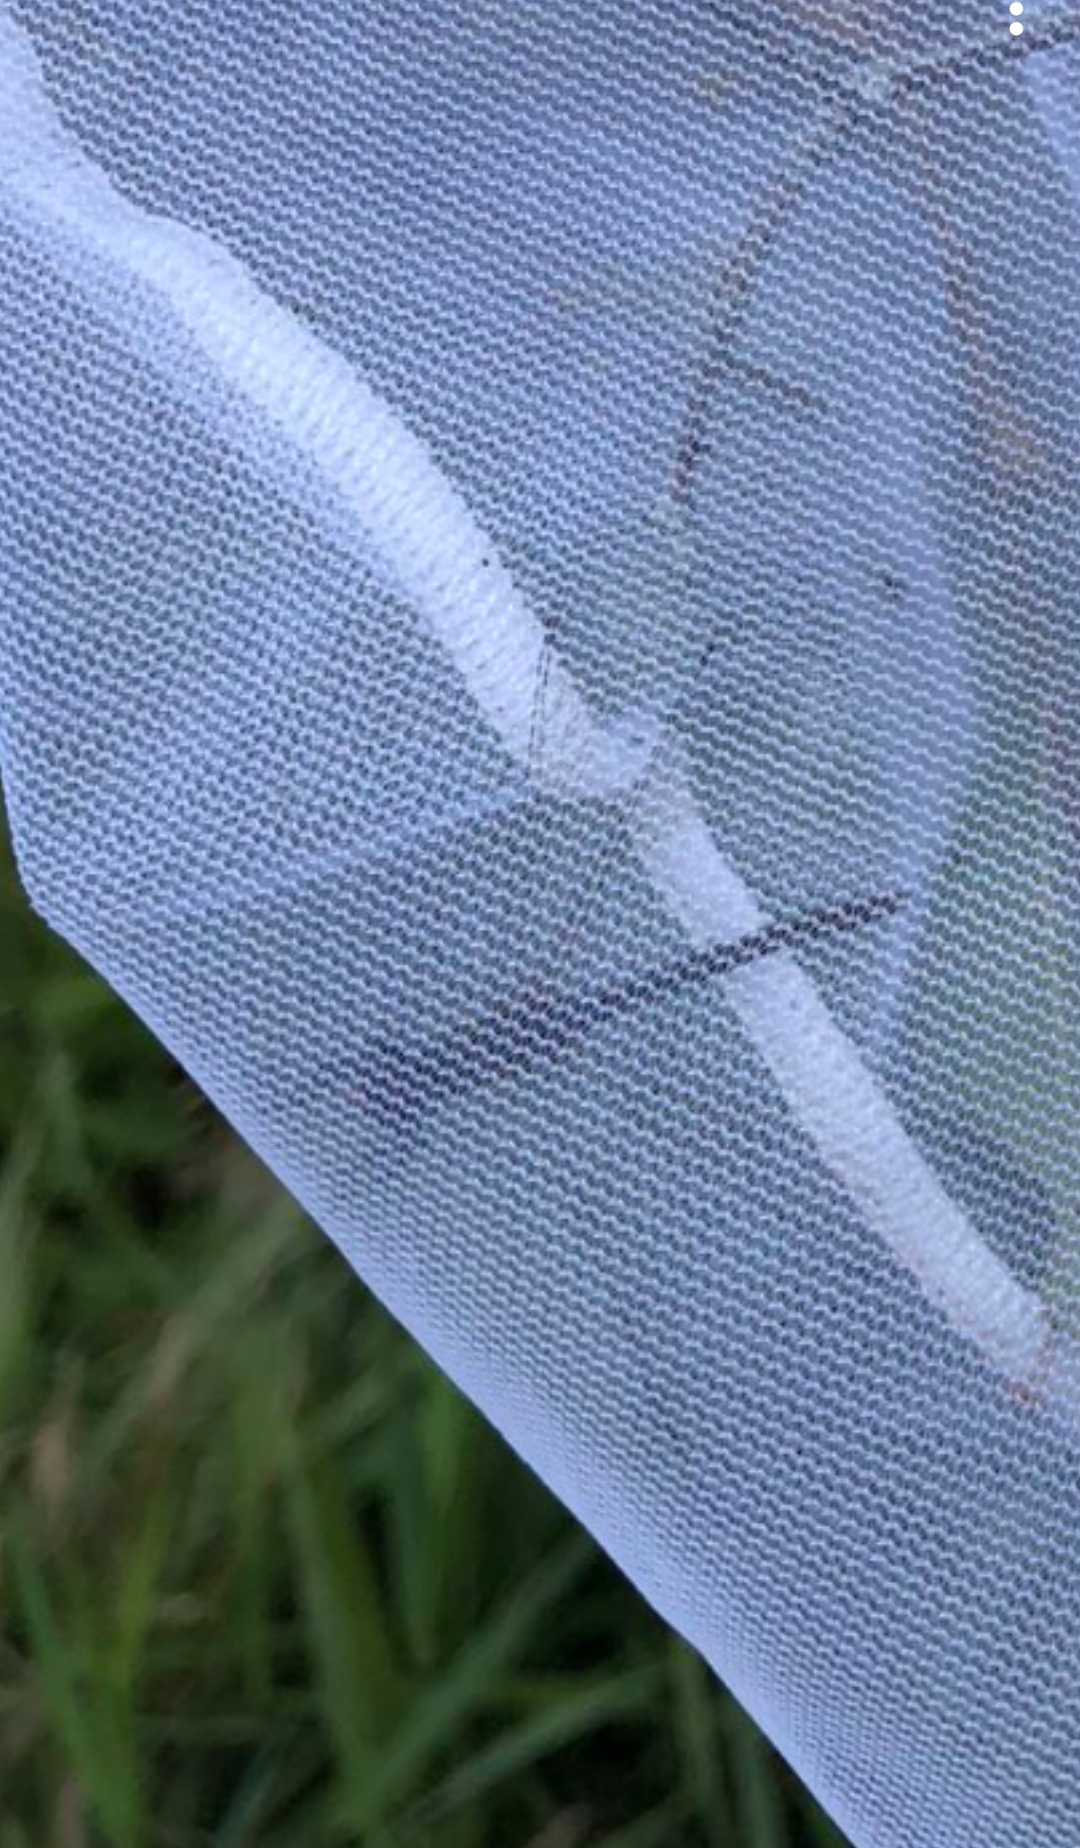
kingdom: Animalia
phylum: Arthropoda
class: Insecta
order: Odonata
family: Libellulidae
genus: Sympetrum
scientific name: Sympetrum
